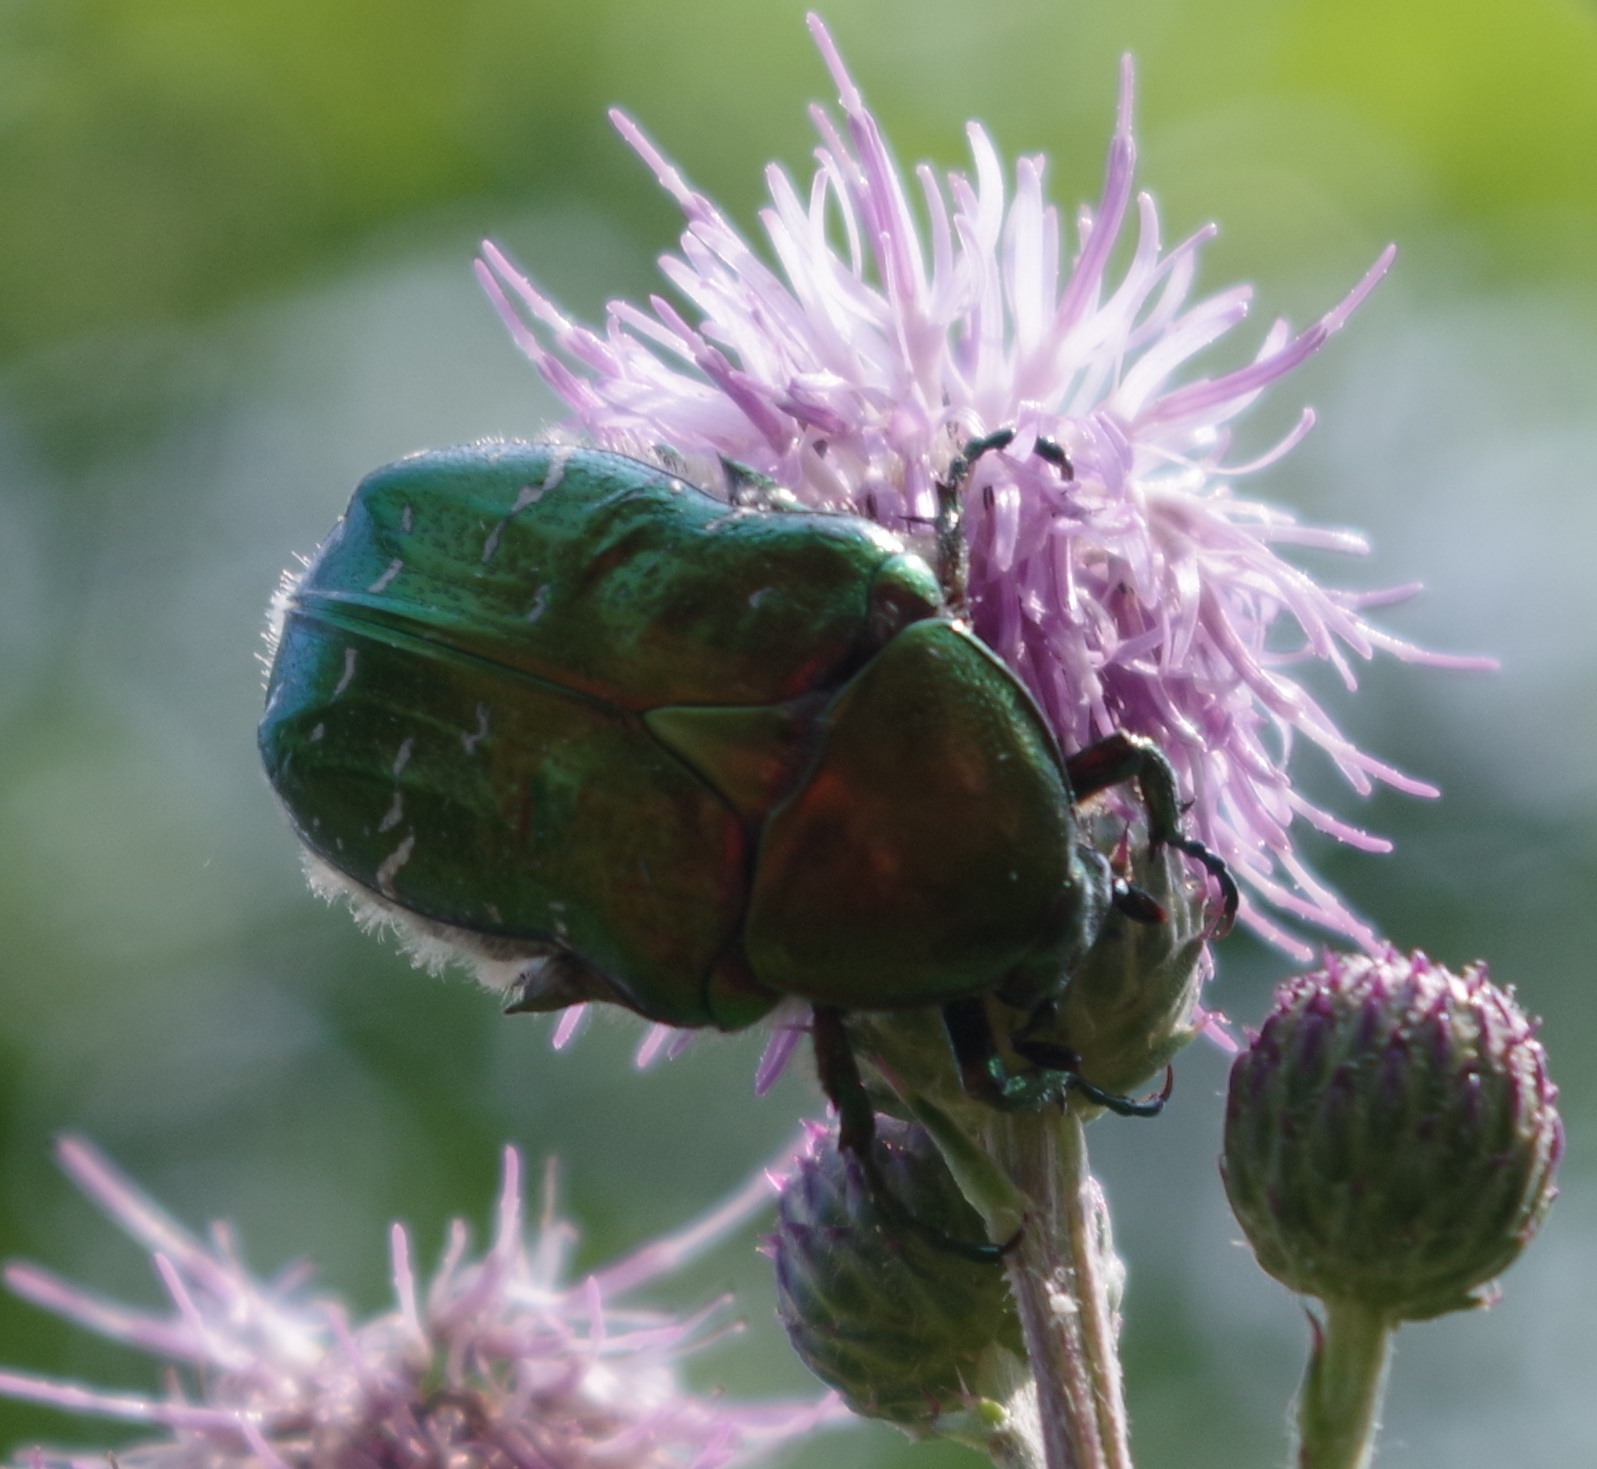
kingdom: Animalia
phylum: Arthropoda
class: Insecta
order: Coleoptera
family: Scarabaeidae
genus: Cetonia
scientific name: Cetonia aurata
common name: Rose chafer
